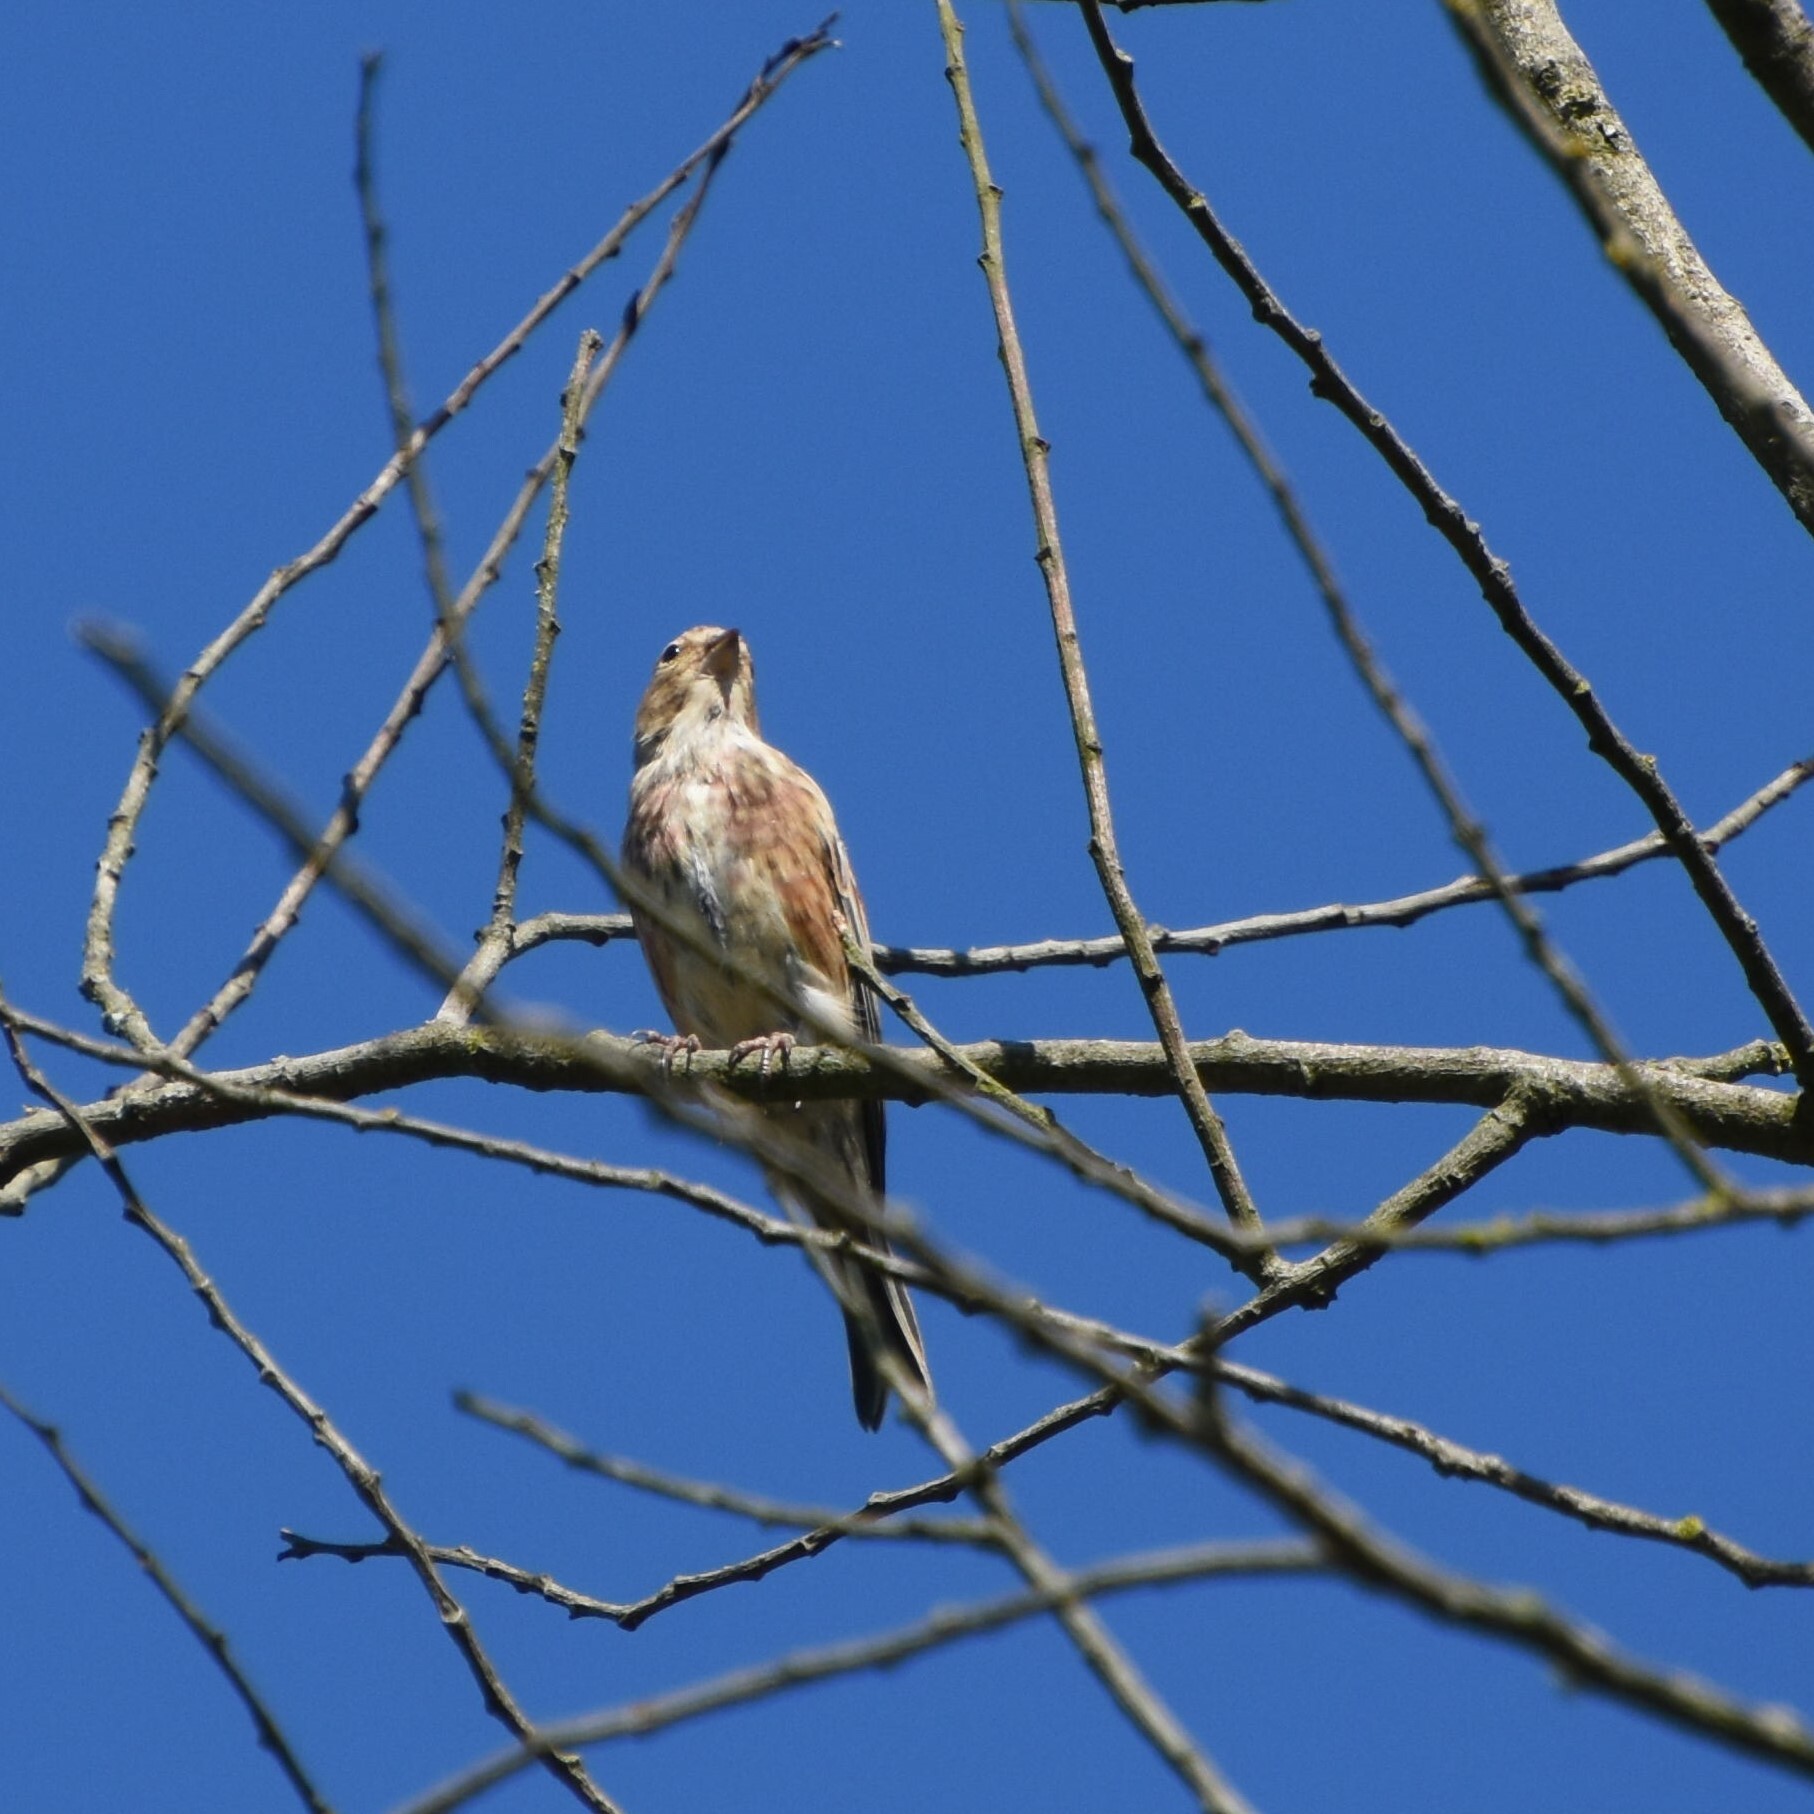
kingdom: Animalia
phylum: Chordata
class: Aves
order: Passeriformes
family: Fringillidae
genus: Linaria
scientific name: Linaria cannabina
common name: Common linnet
